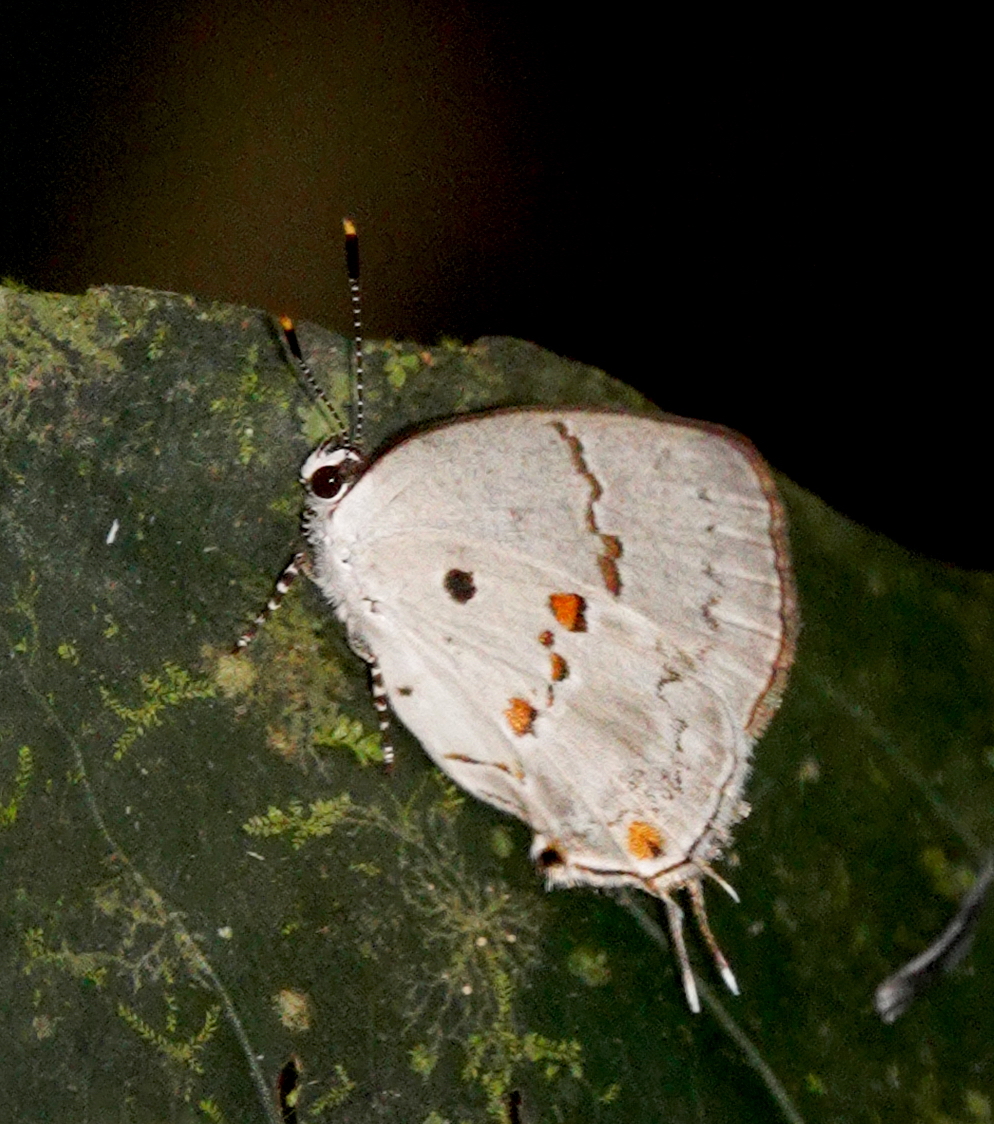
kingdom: Animalia
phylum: Arthropoda
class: Insecta
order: Lepidoptera
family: Lycaenidae
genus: Thecla
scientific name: Thecla celmus
